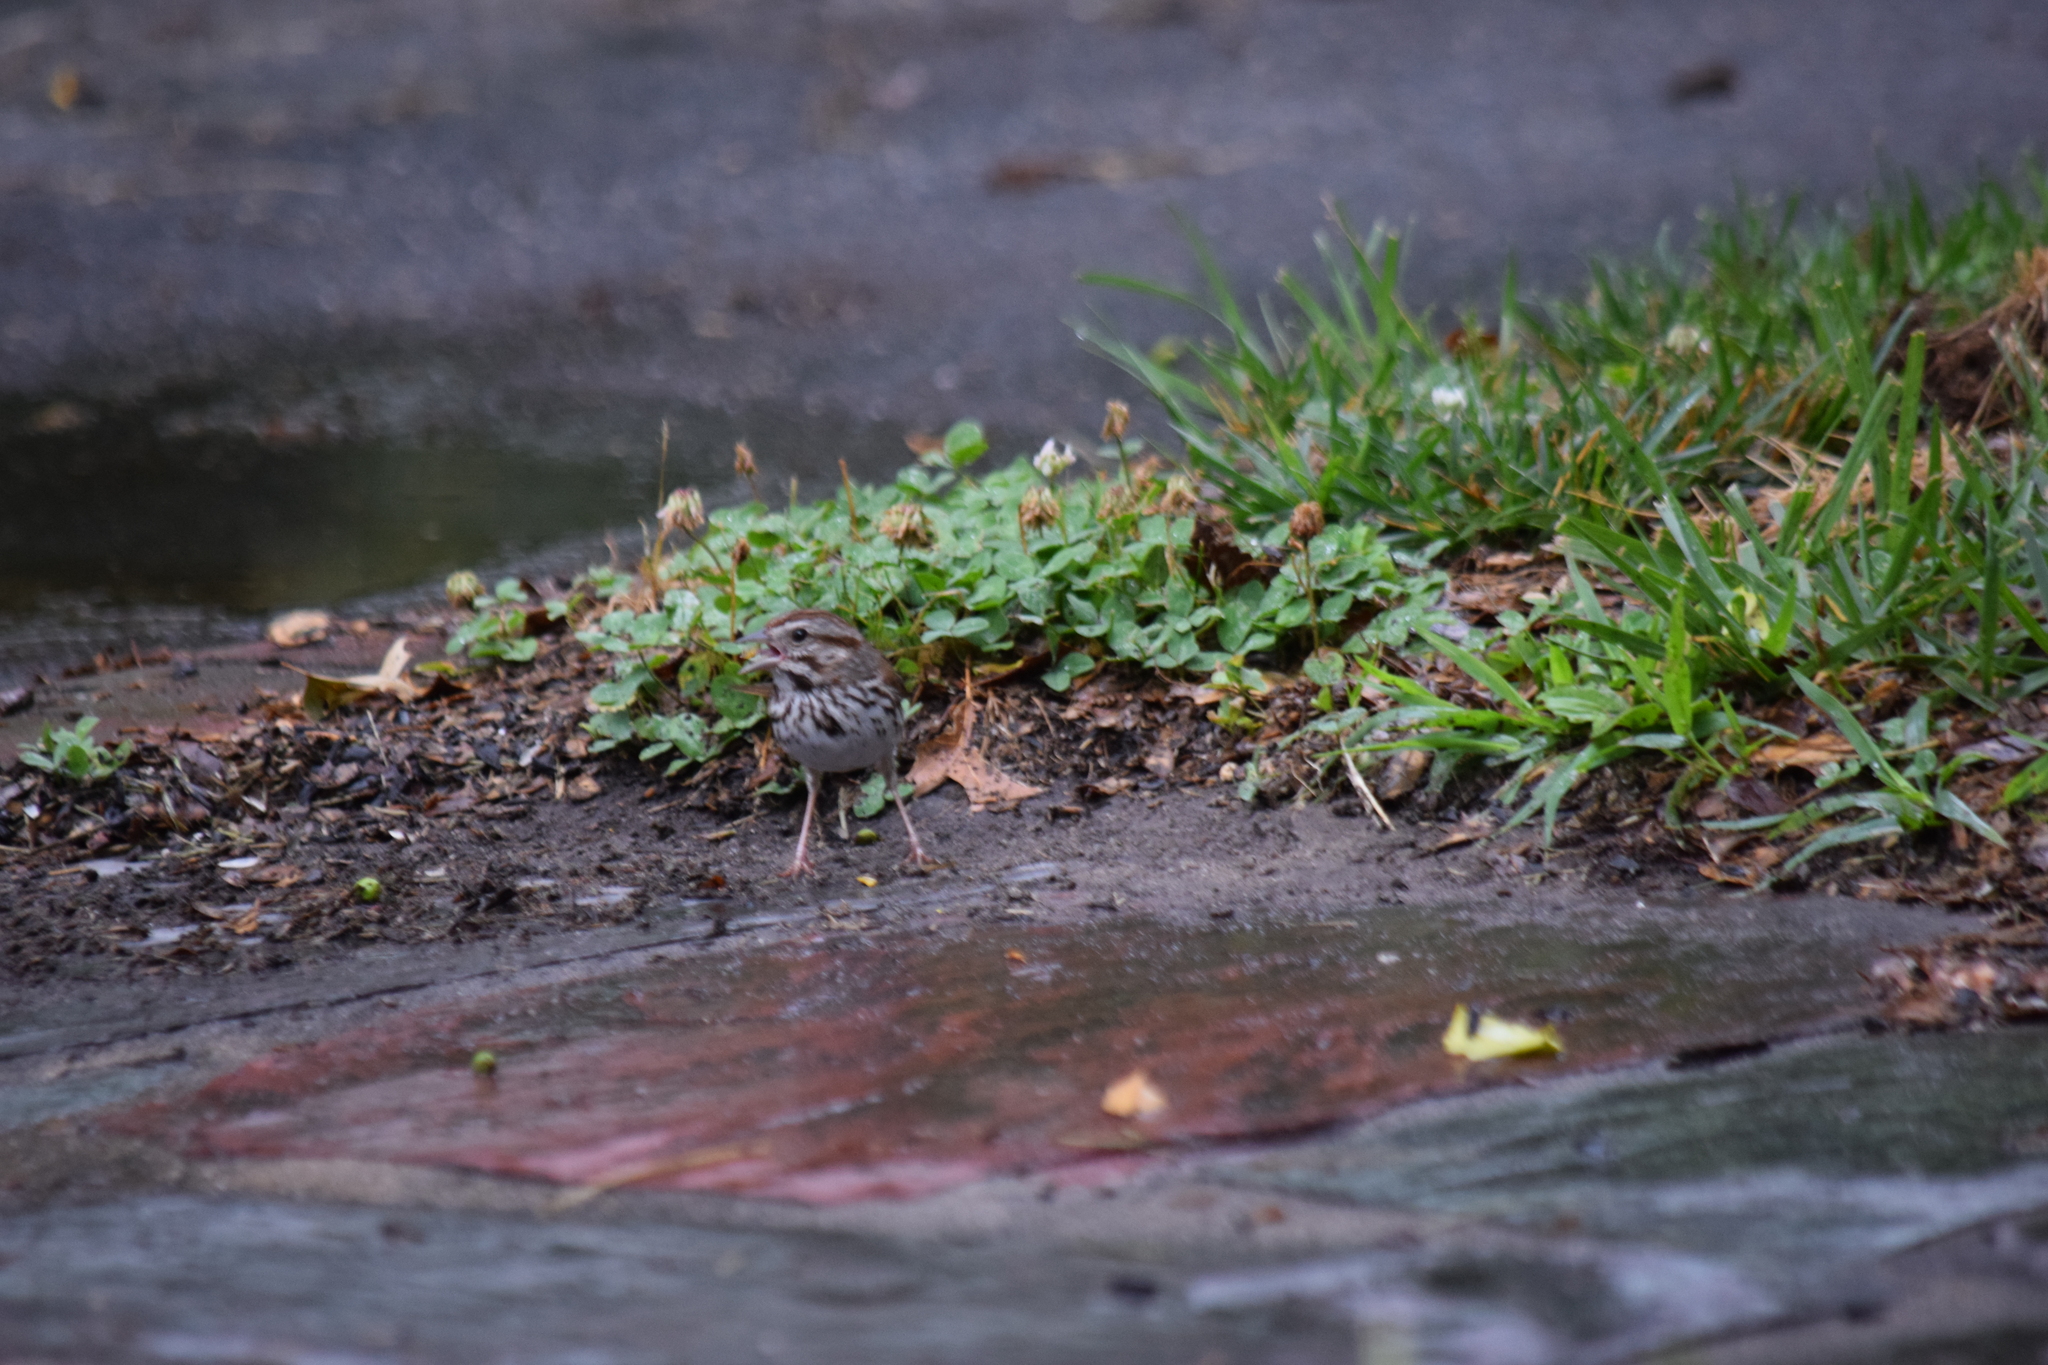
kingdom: Animalia
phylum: Chordata
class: Aves
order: Passeriformes
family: Passerellidae
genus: Melospiza
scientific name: Melospiza melodia
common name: Song sparrow
